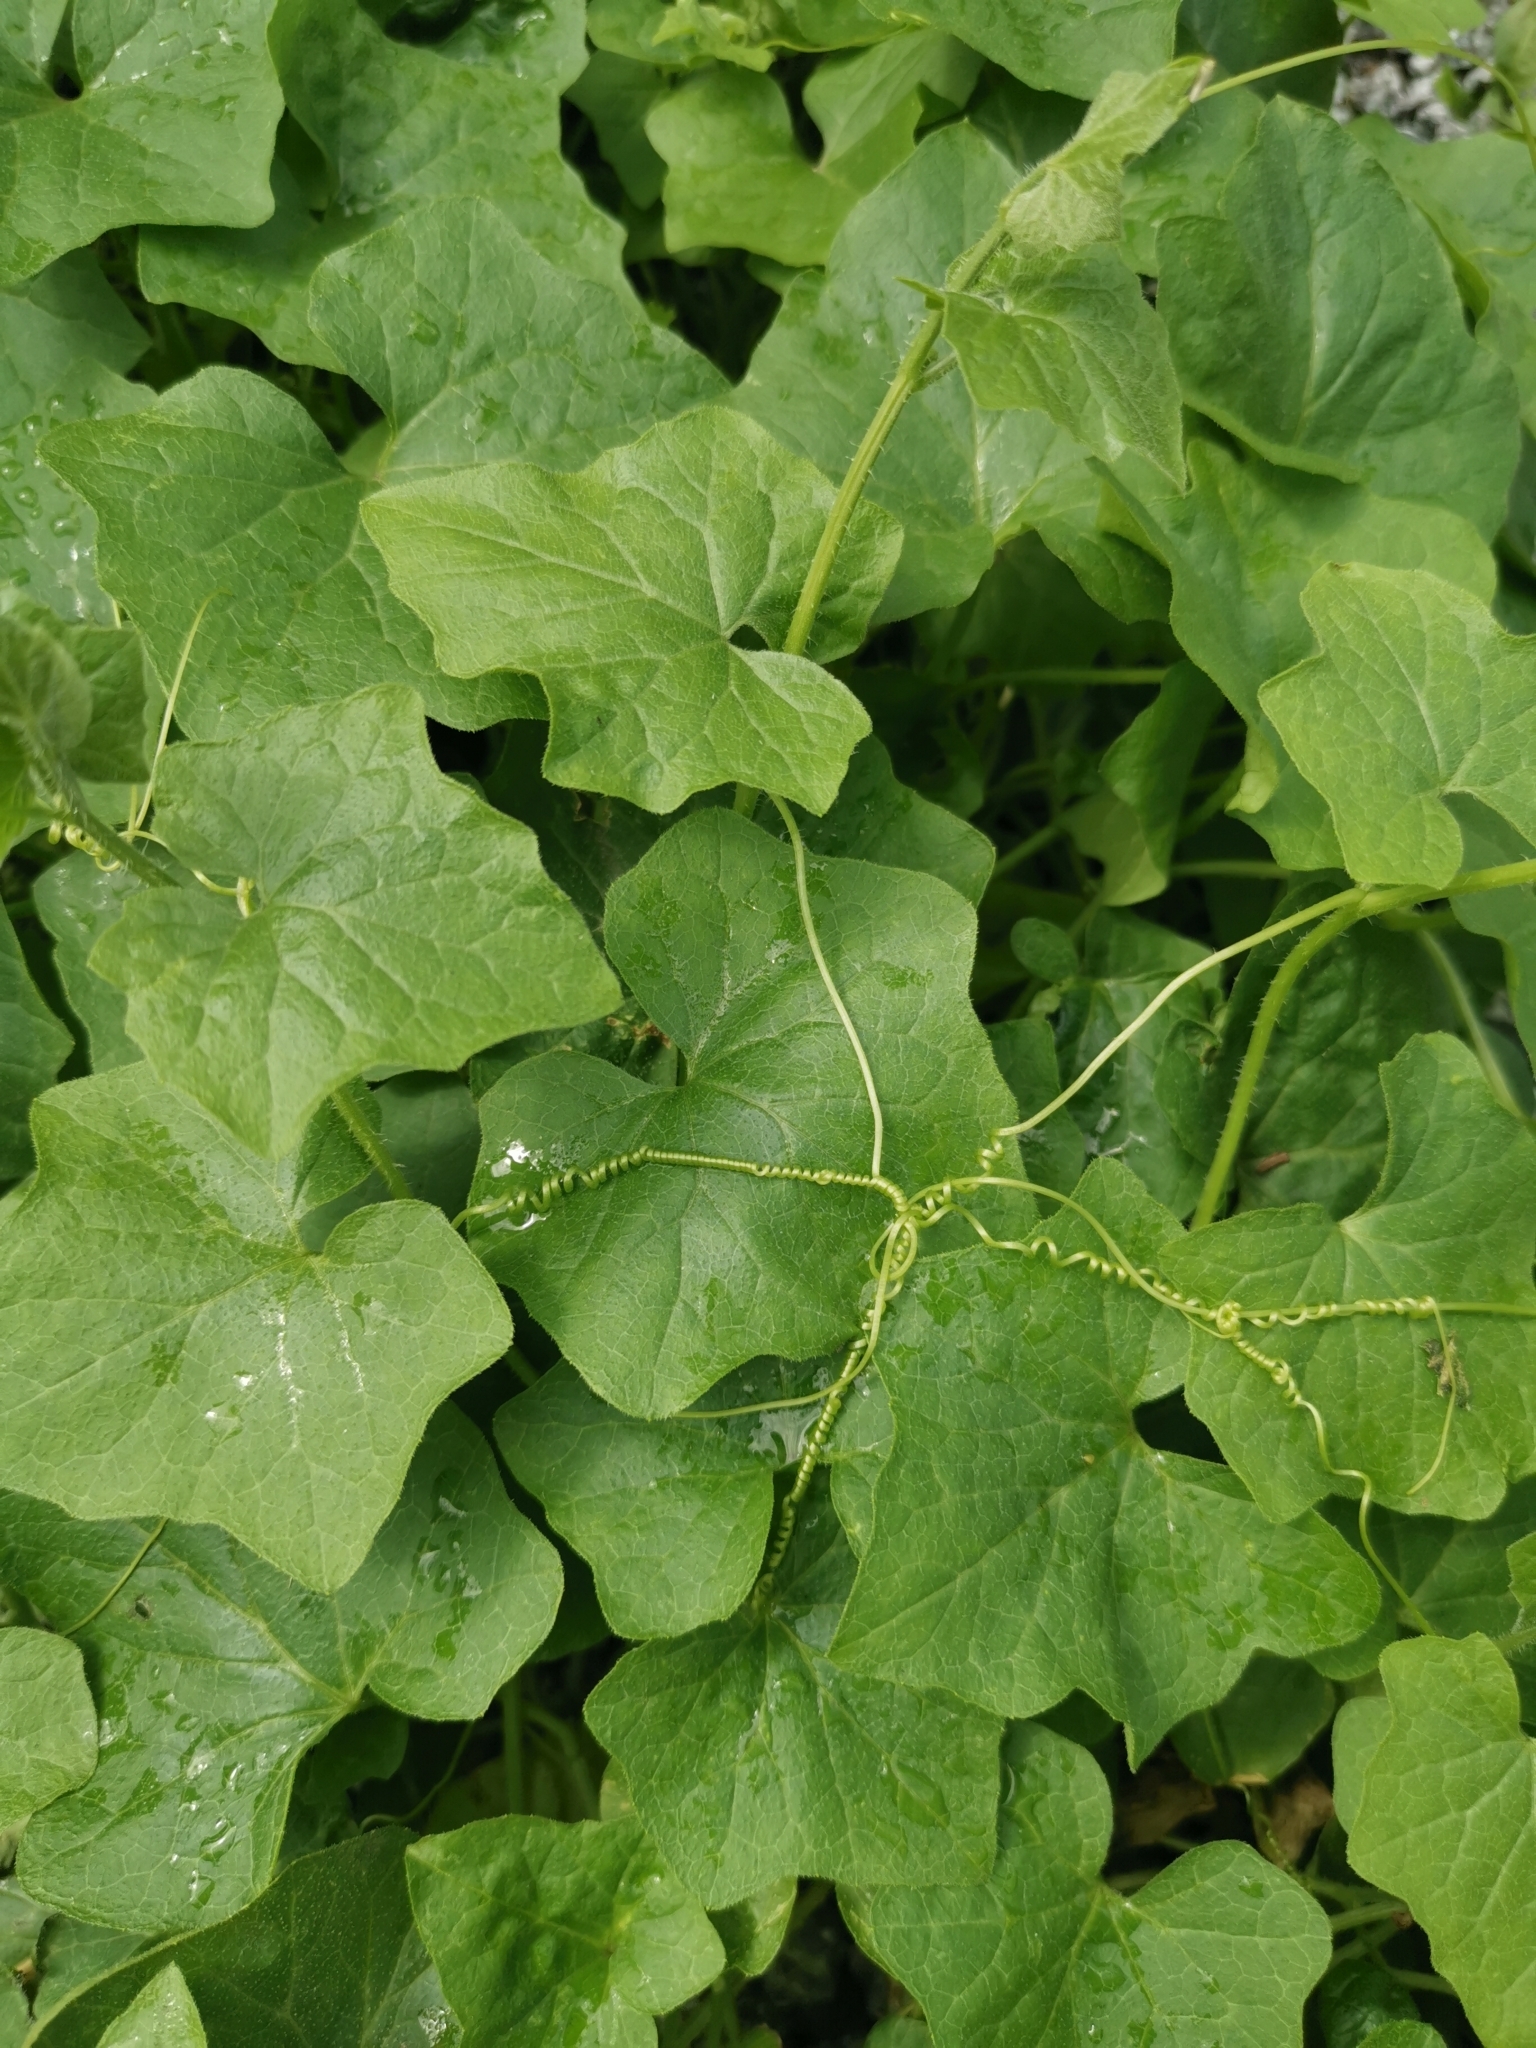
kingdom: Plantae
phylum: Tracheophyta
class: Magnoliopsida
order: Cucurbitales
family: Cucurbitaceae
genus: Bryonia
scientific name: Bryonia cretica
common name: Cretan bryony
